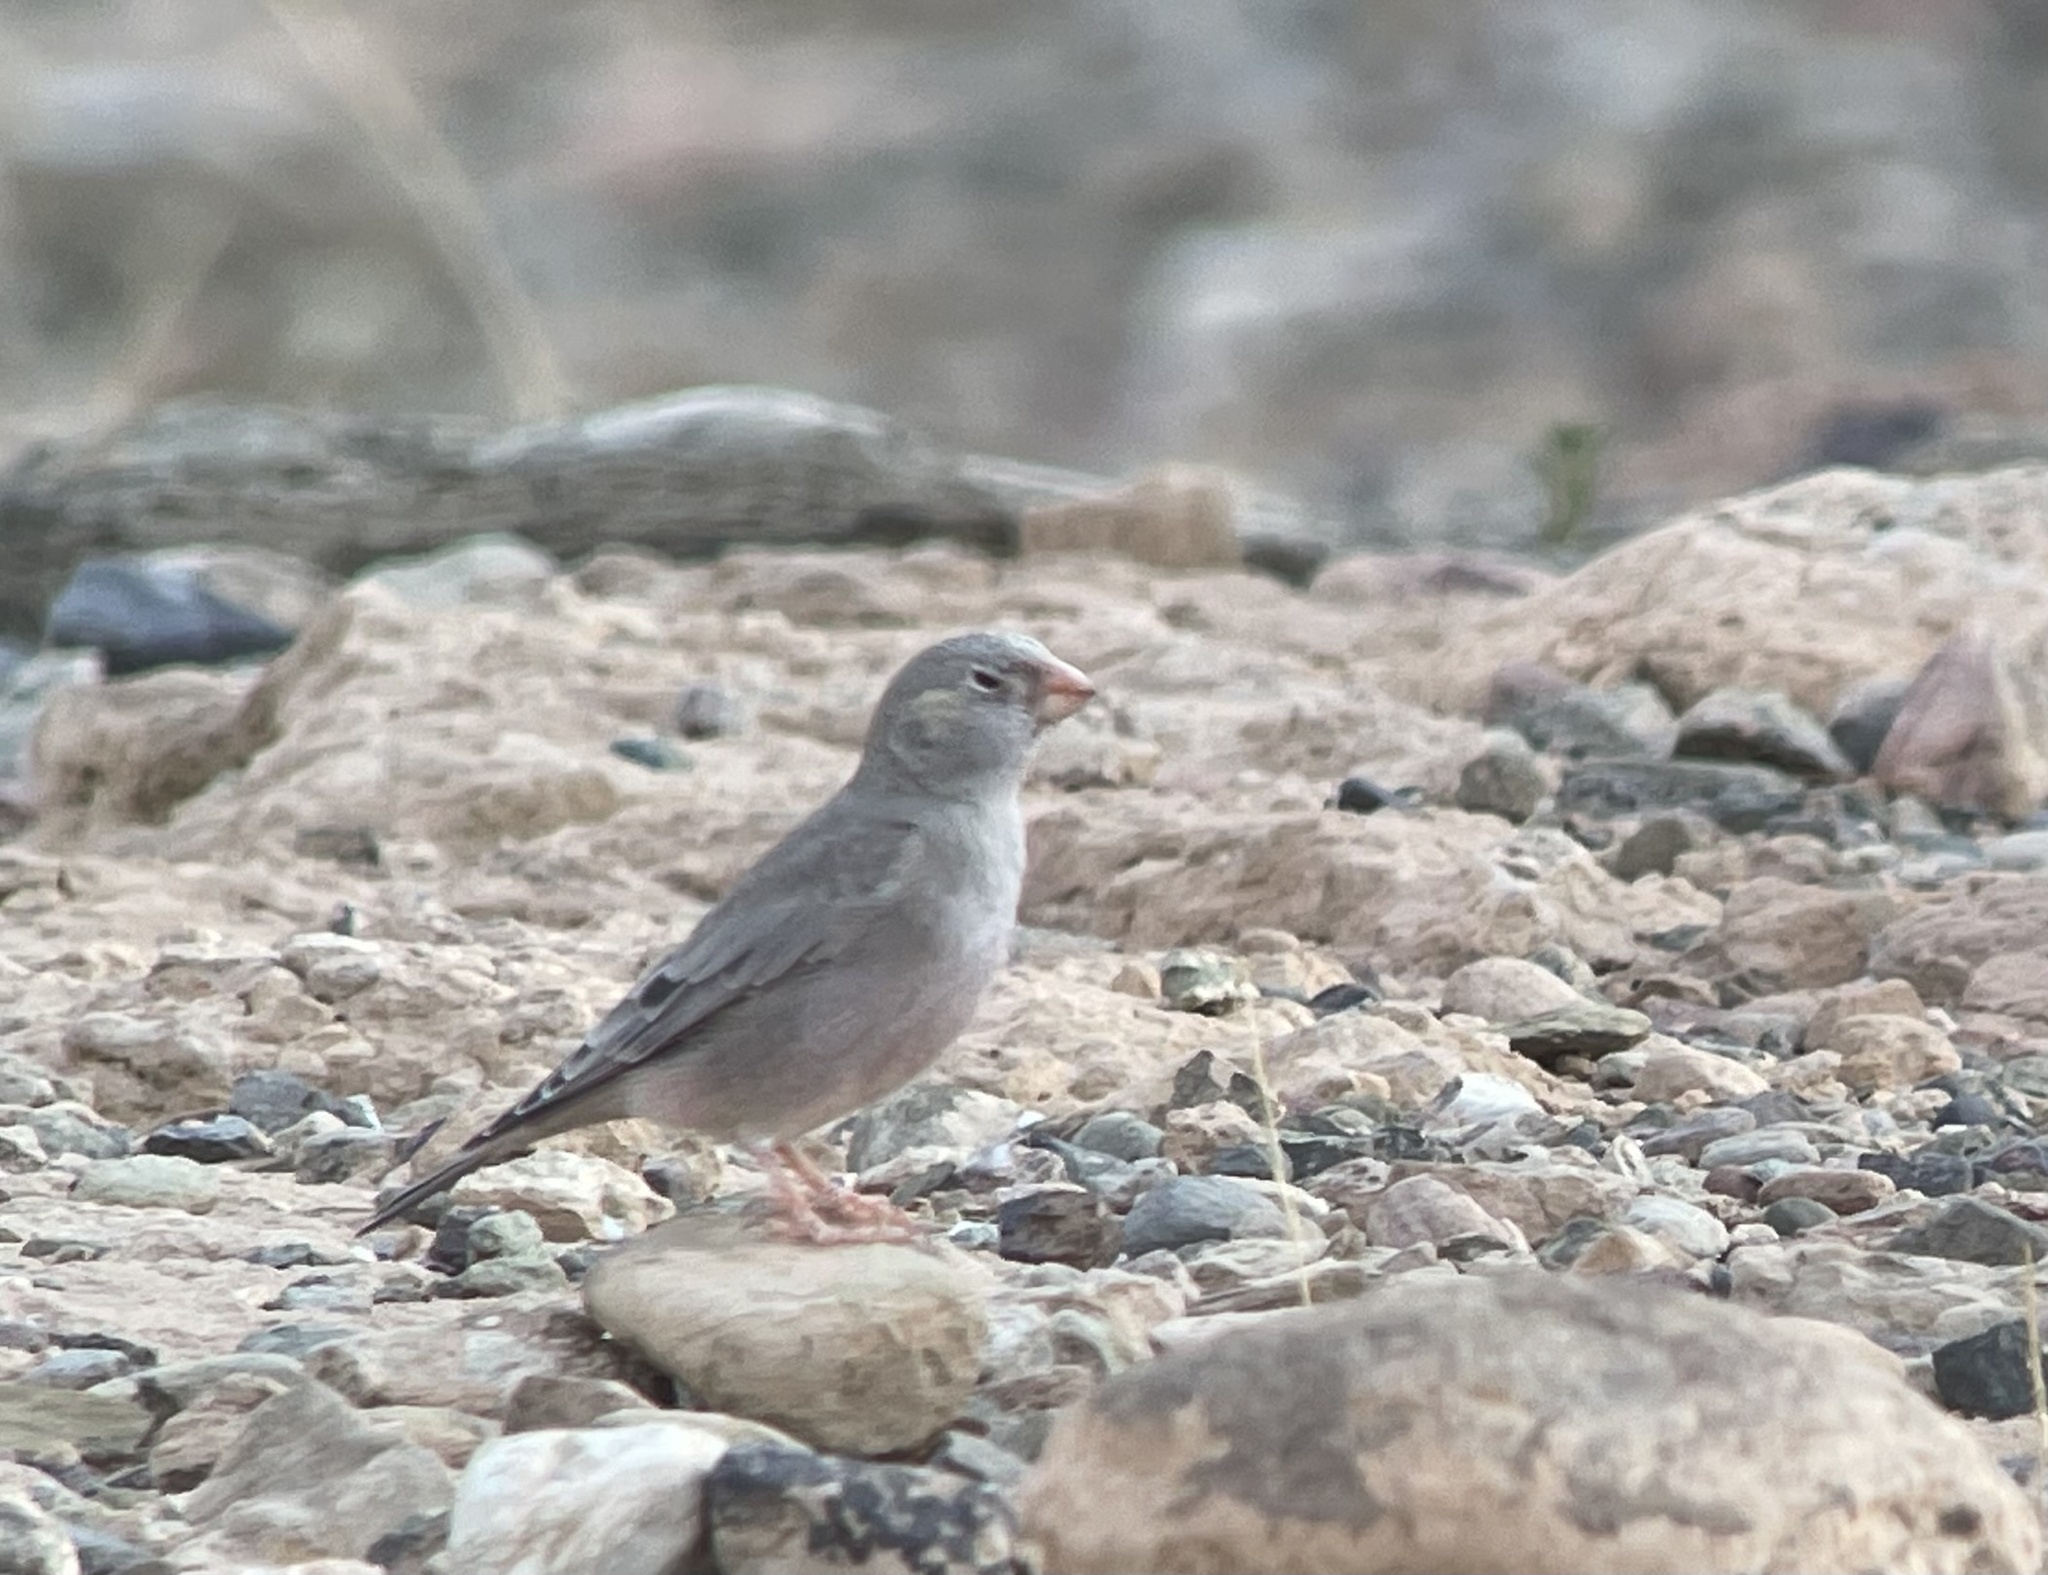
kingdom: Animalia
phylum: Chordata
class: Aves
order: Passeriformes
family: Fringillidae
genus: Bucanetes
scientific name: Bucanetes githagineus
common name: Trumpeter finch
